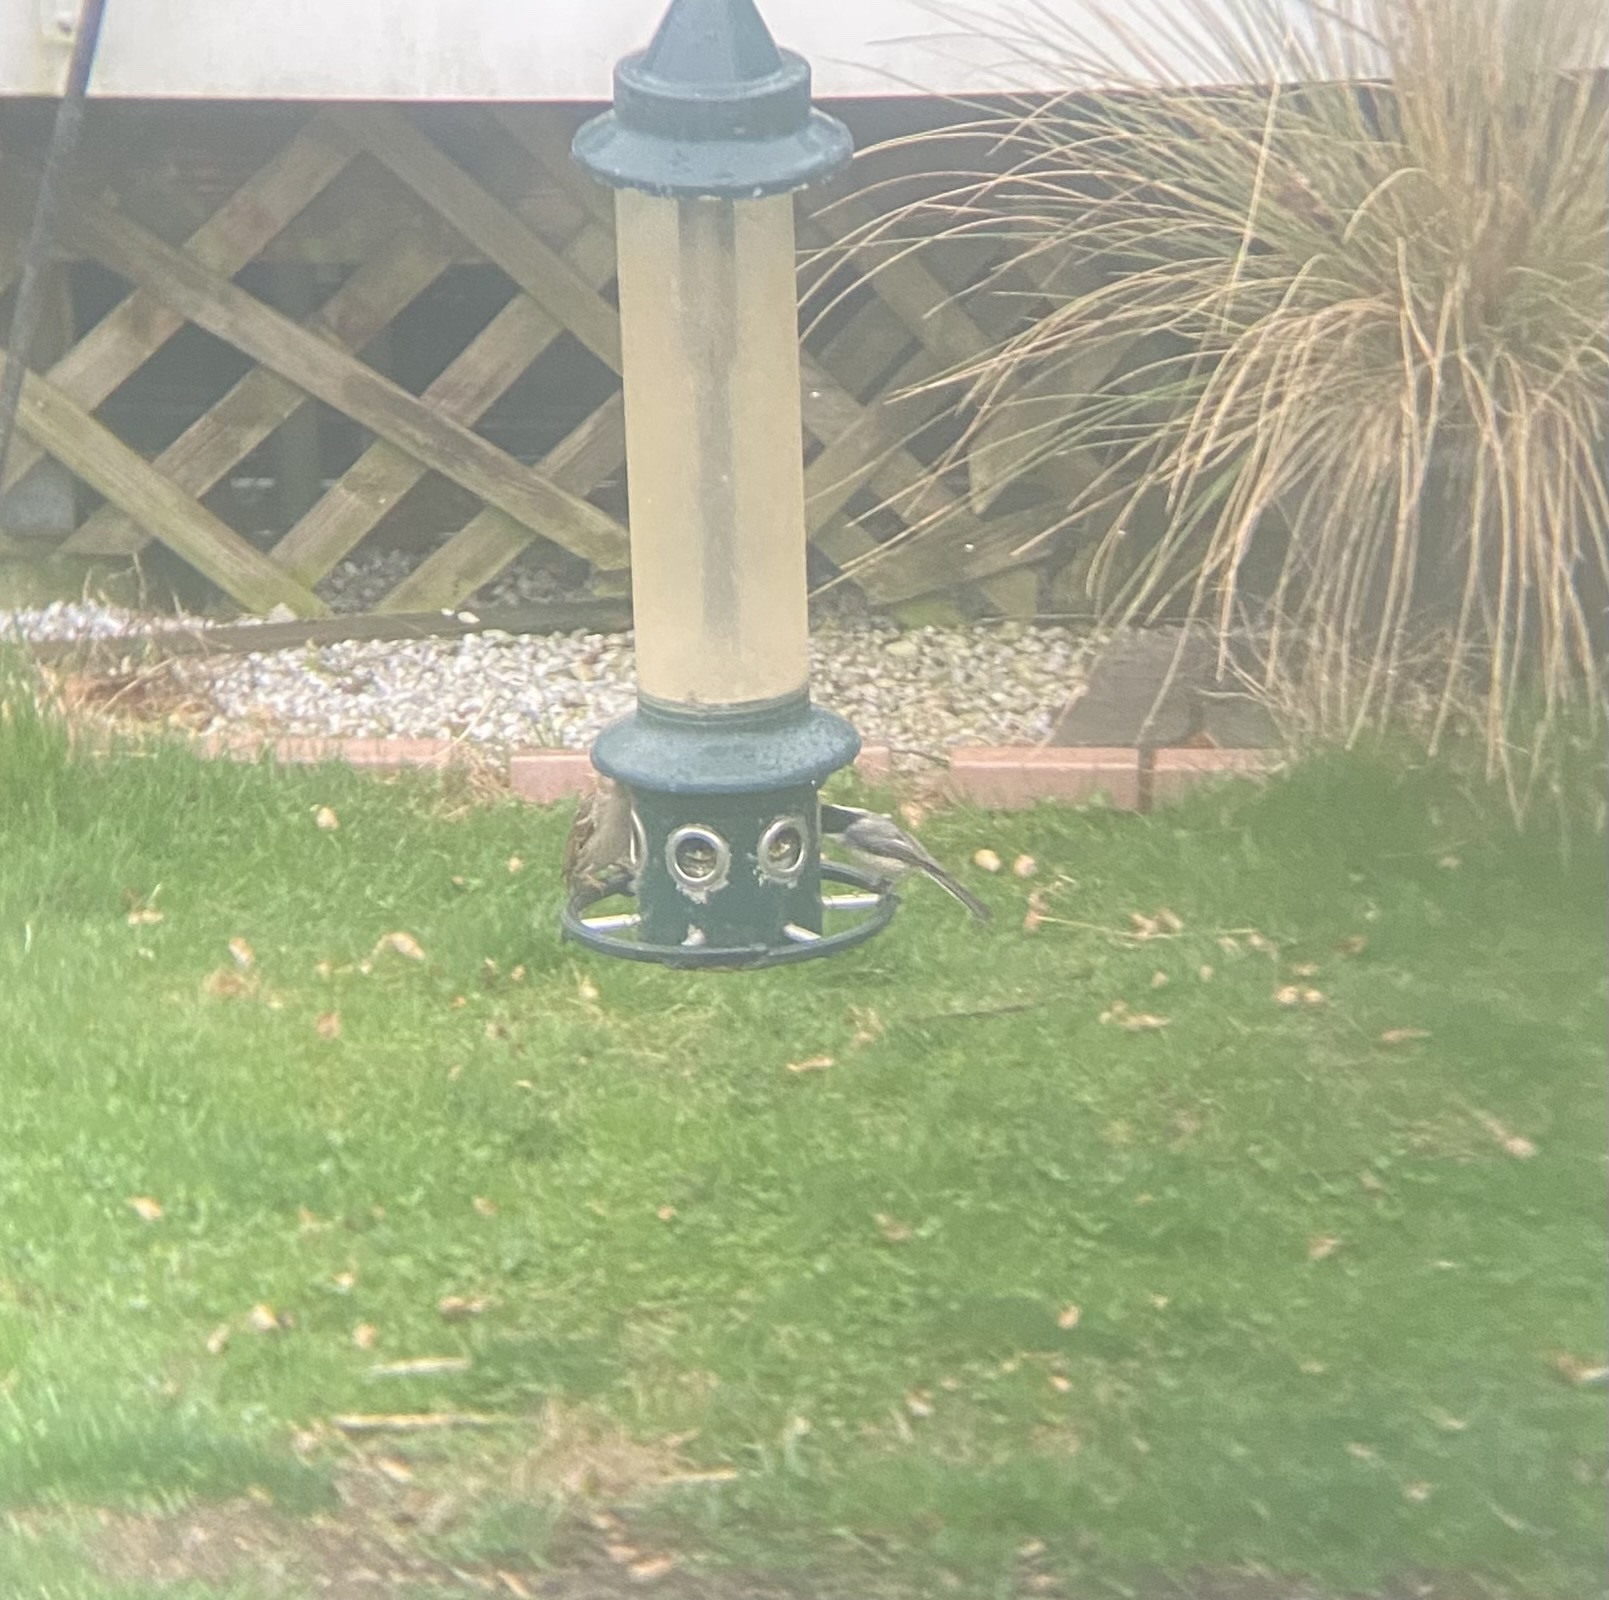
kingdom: Animalia
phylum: Chordata
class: Aves
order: Passeriformes
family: Paridae
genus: Poecile
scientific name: Poecile atricapillus
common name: Black-capped chickadee
